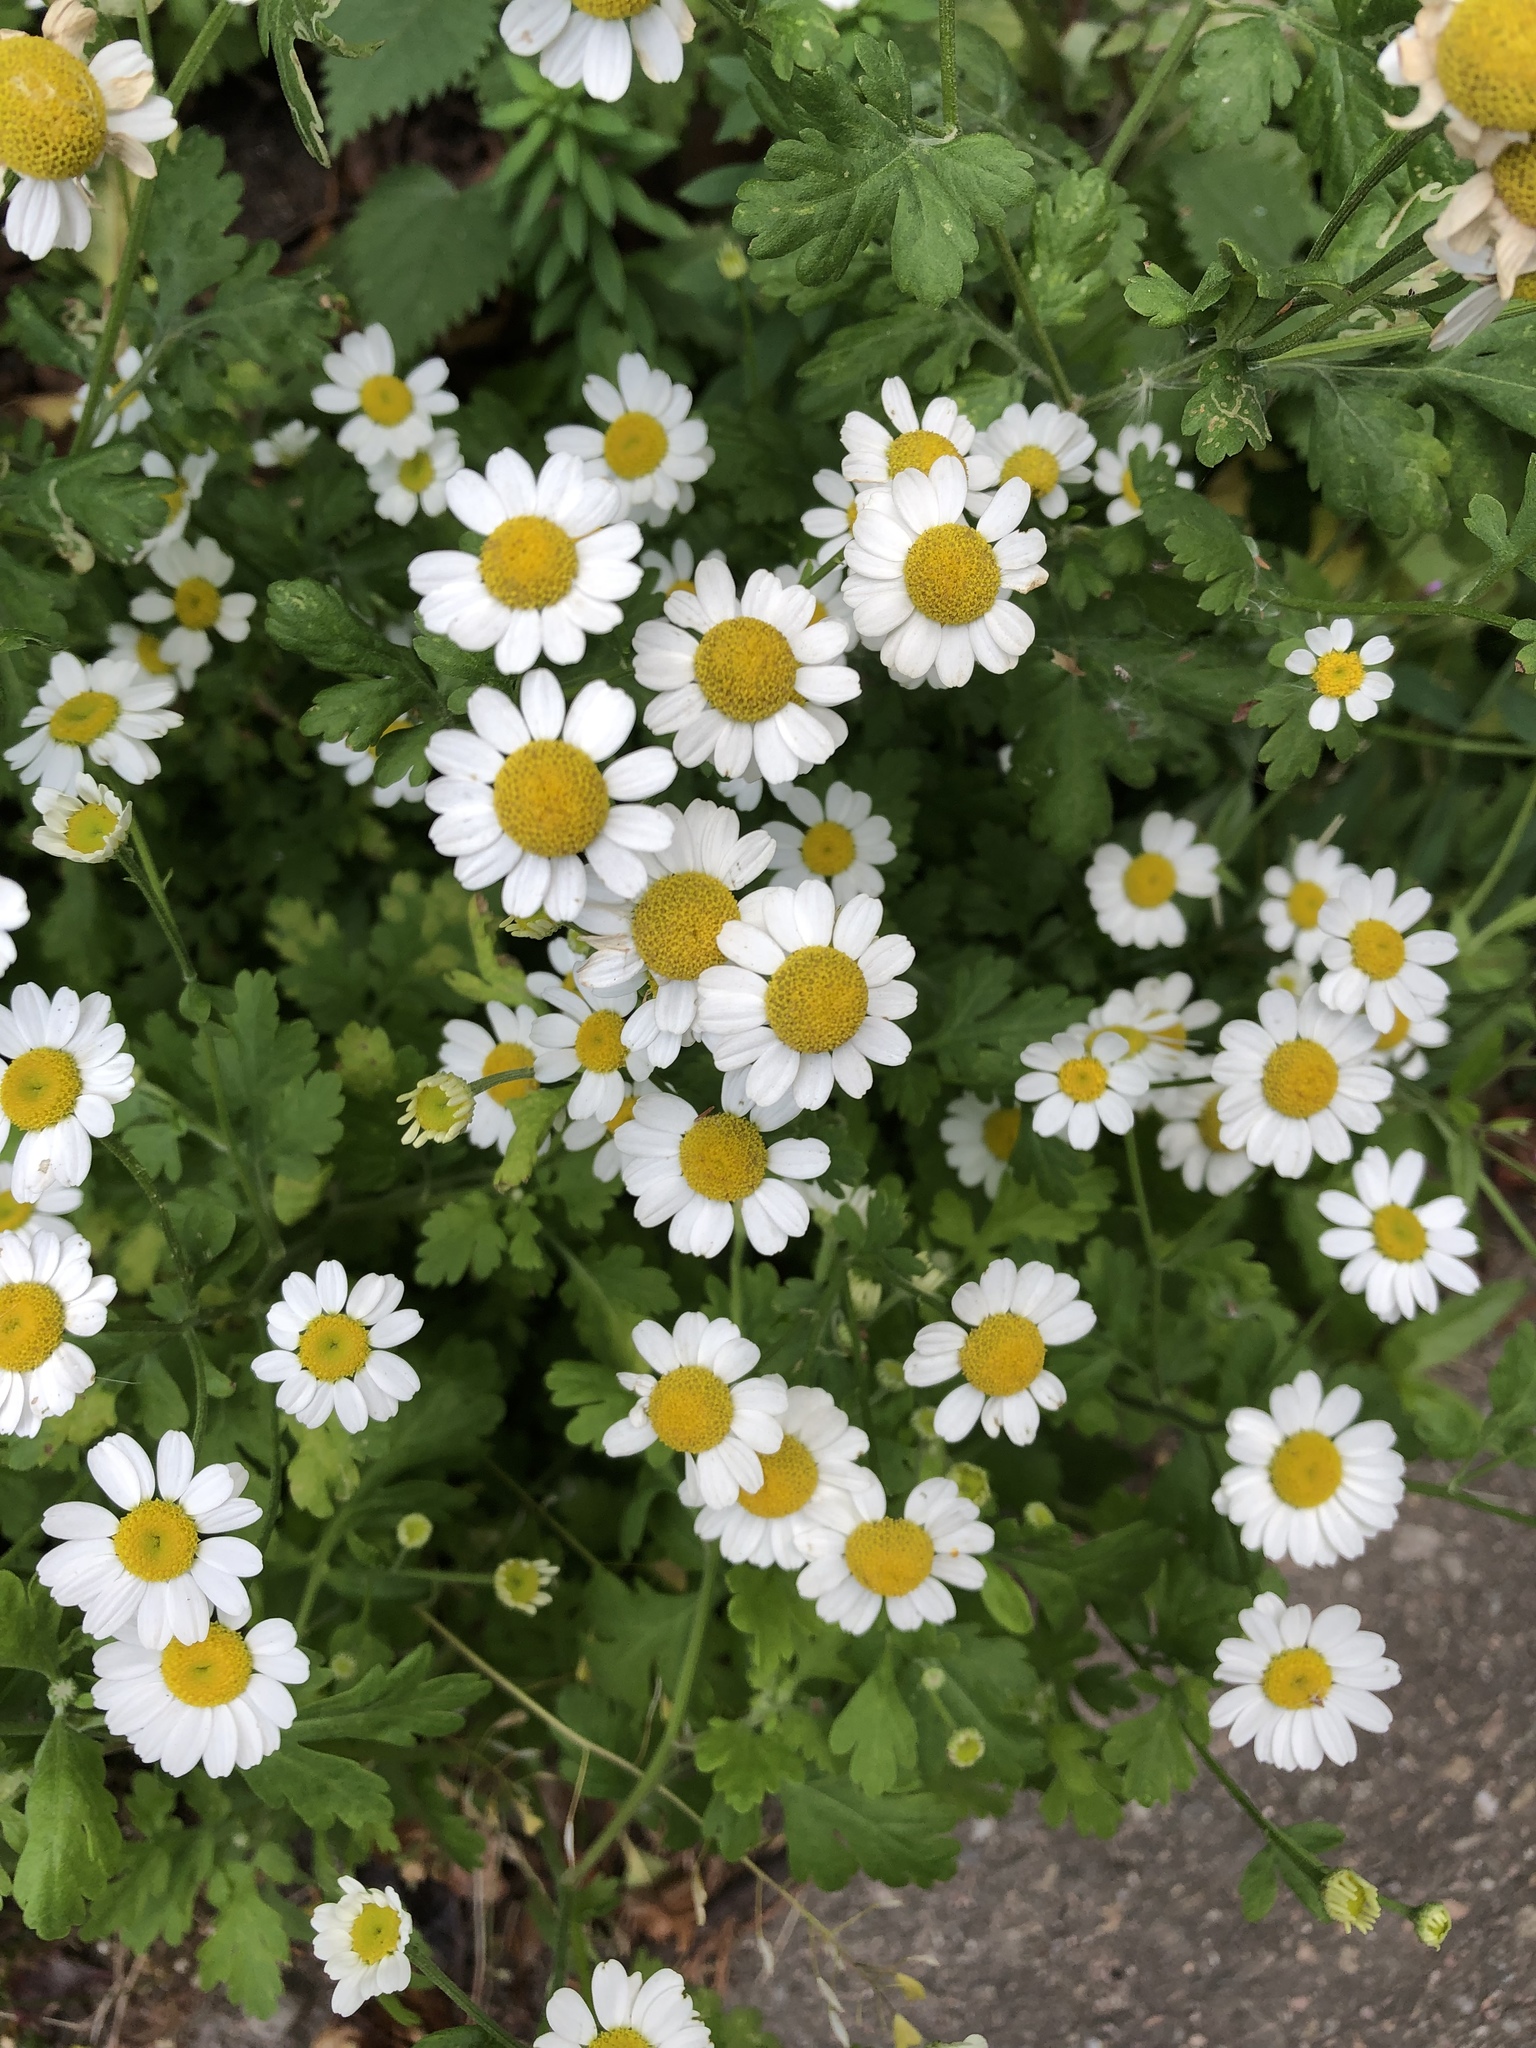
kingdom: Plantae
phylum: Tracheophyta
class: Magnoliopsida
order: Asterales
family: Asteraceae
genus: Tanacetum
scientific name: Tanacetum parthenium
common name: Feverfew
